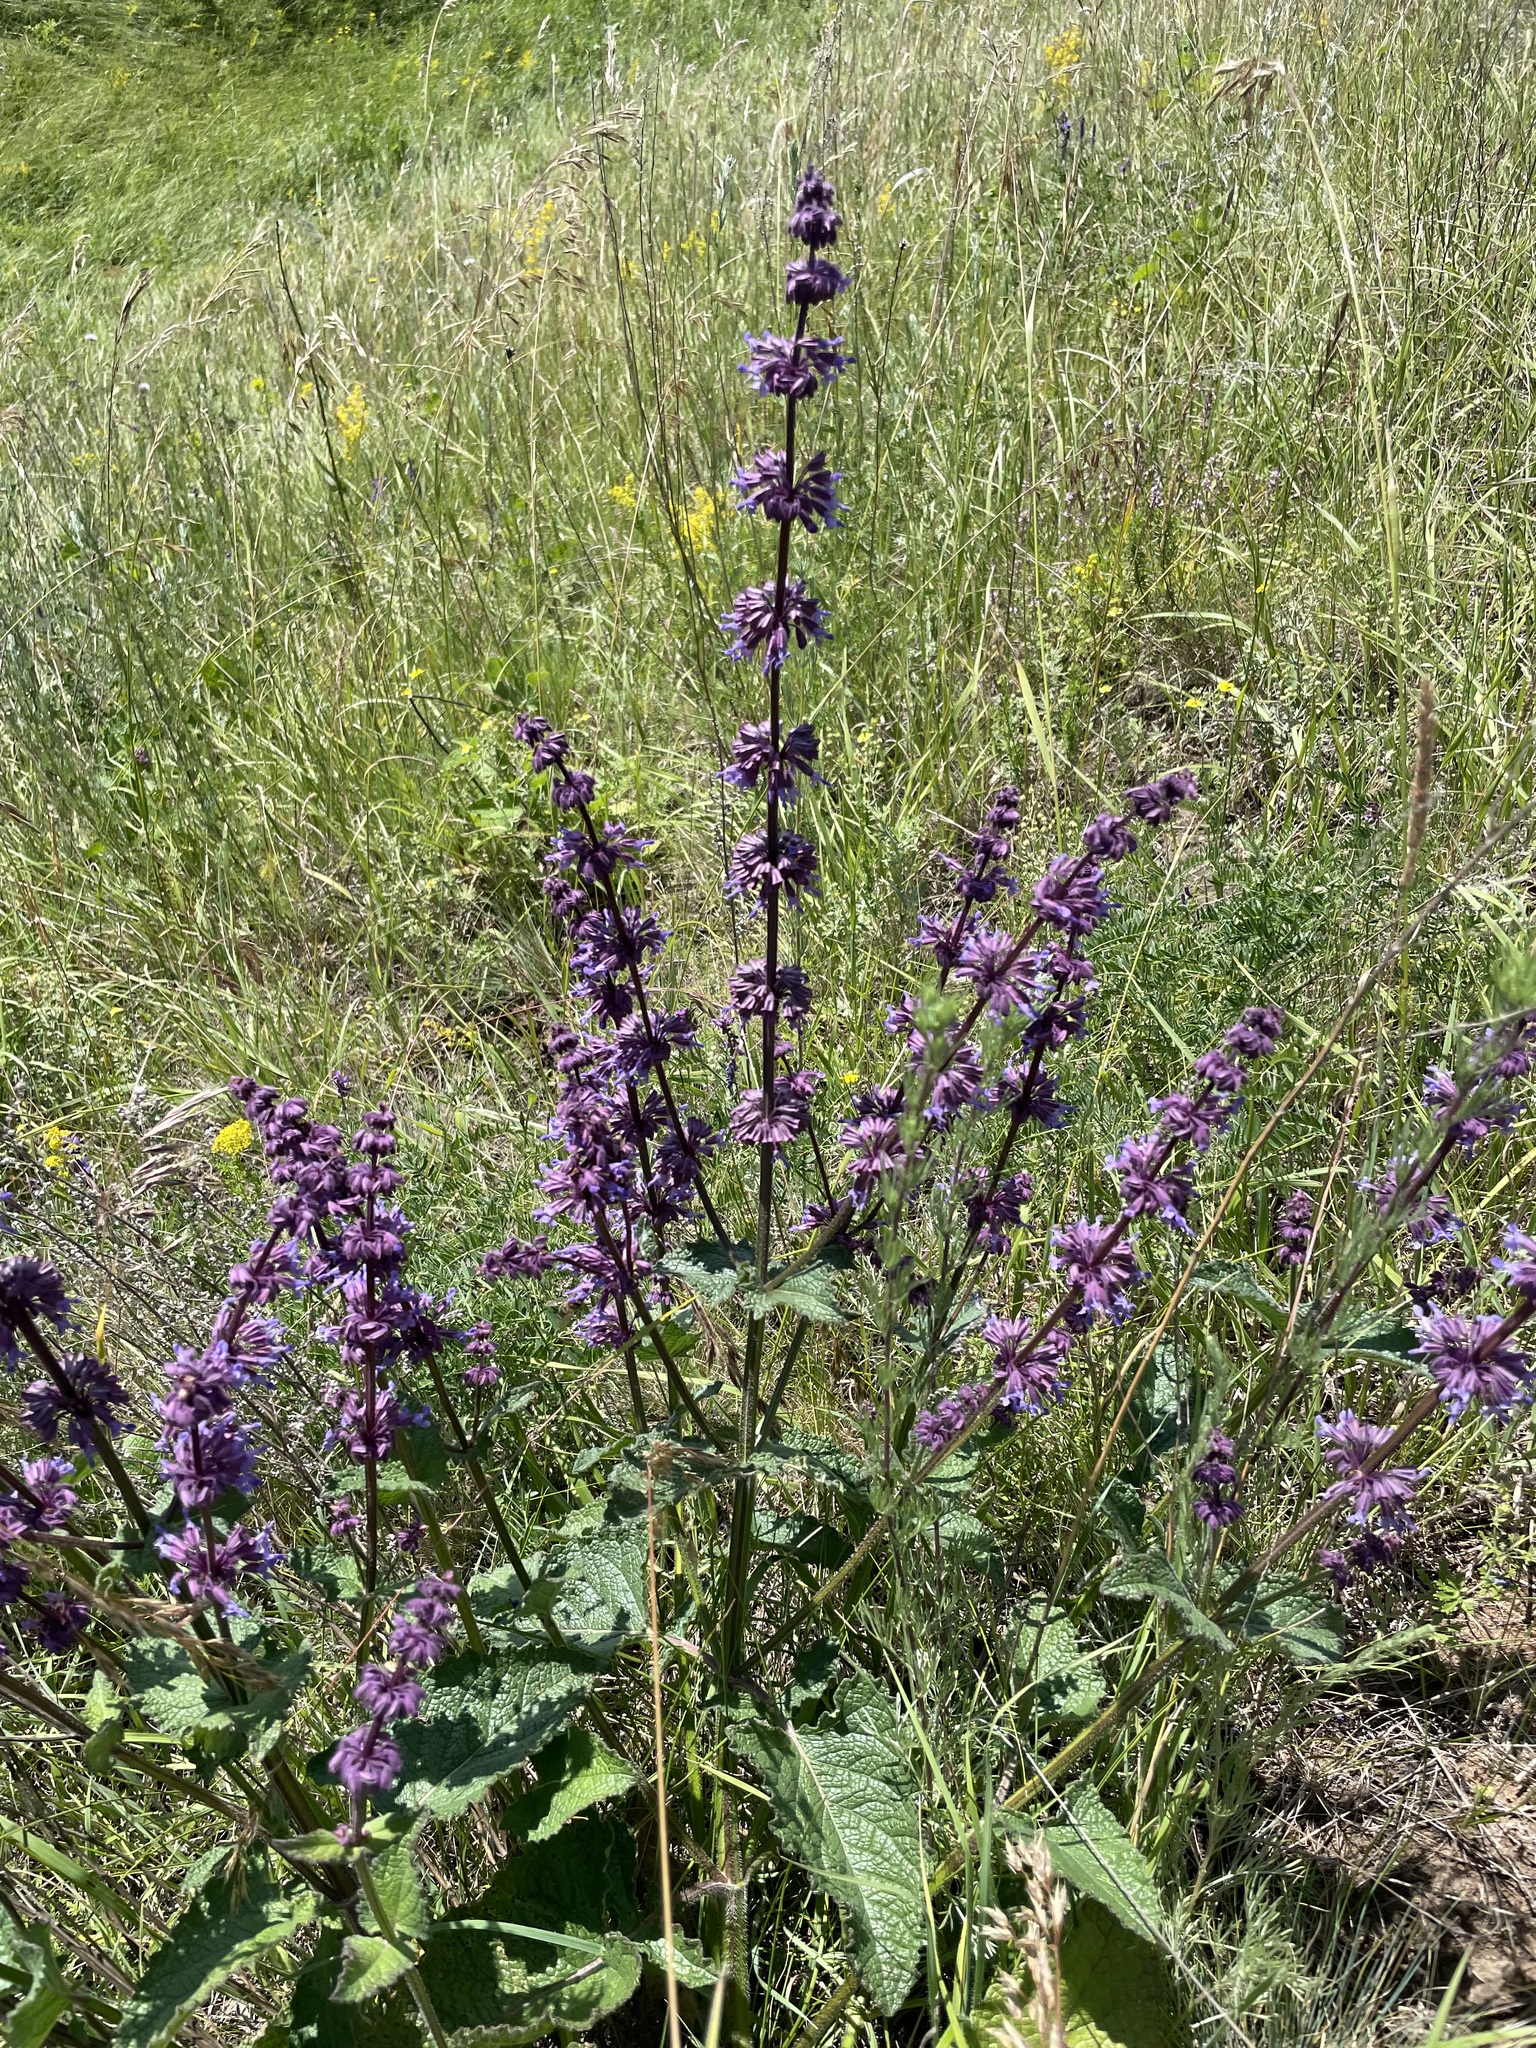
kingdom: Plantae
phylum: Tracheophyta
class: Magnoliopsida
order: Lamiales
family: Lamiaceae
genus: Salvia
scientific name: Salvia verticillata
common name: Whorled clary
